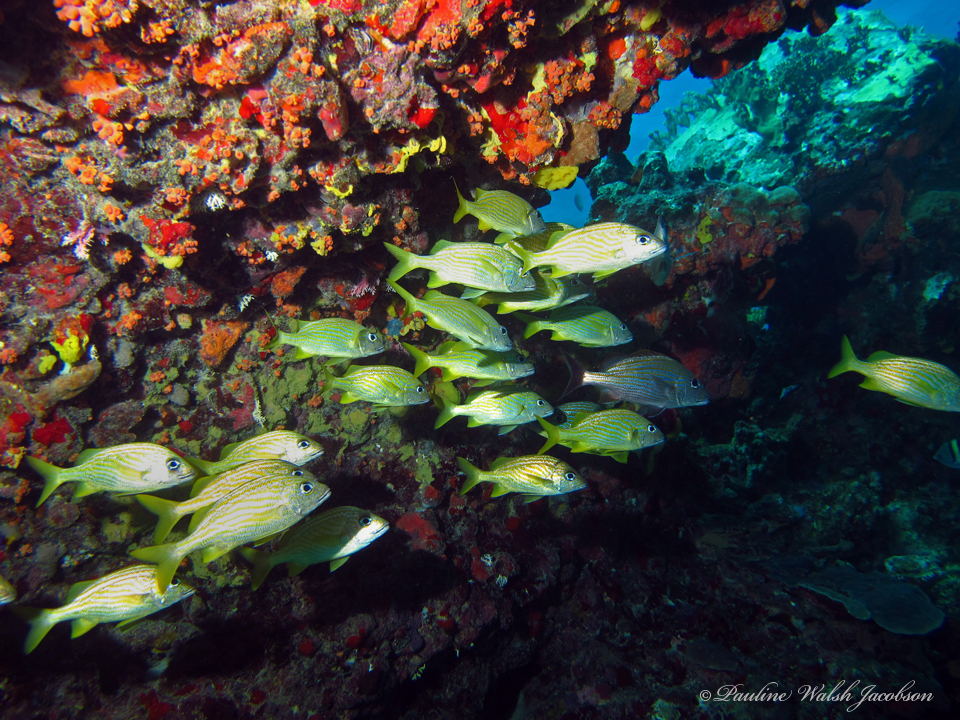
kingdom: Animalia
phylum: Chordata
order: Perciformes
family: Haemulidae
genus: Haemulon
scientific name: Haemulon flavolineatum
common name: French grunt
